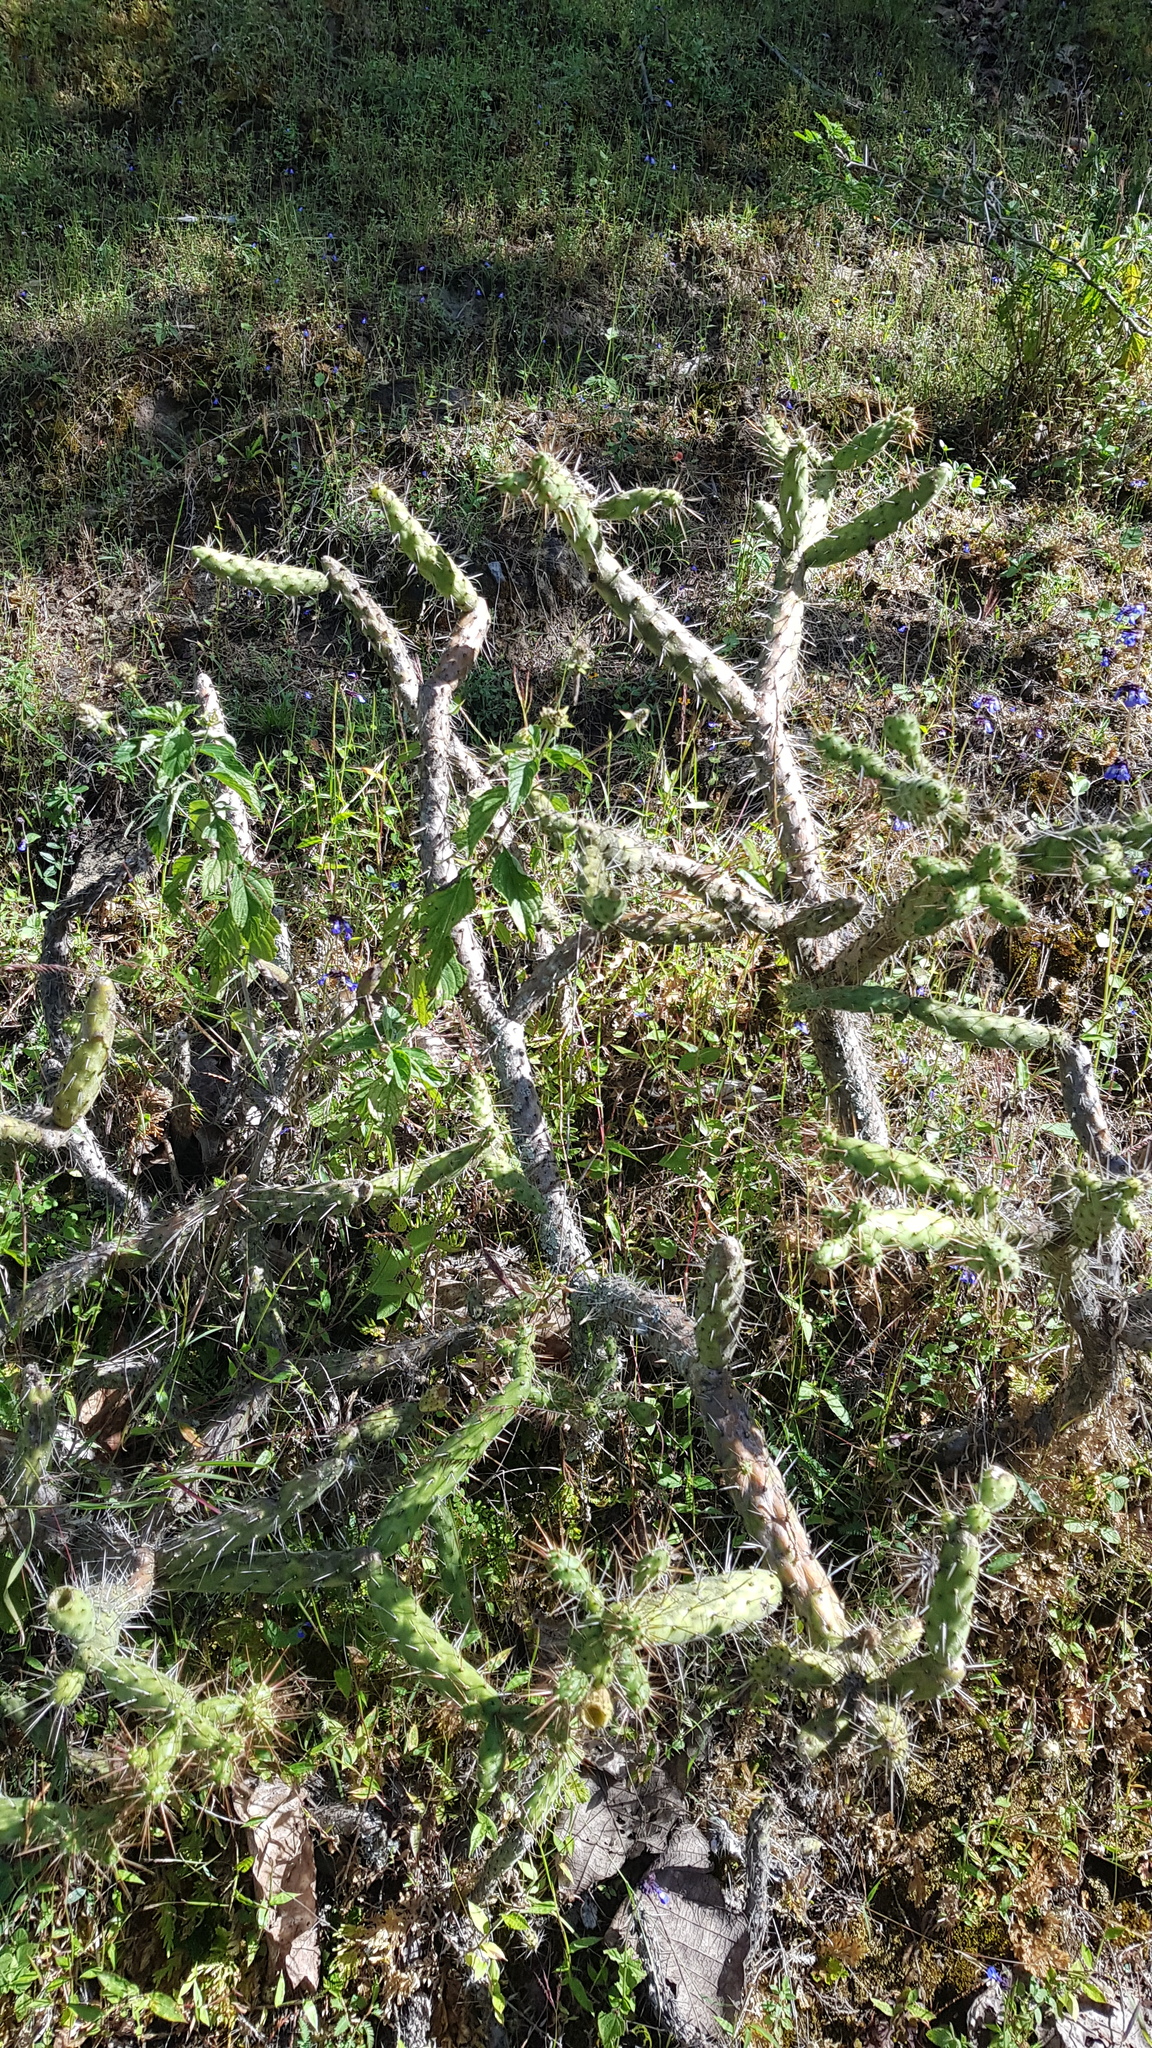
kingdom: Plantae
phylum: Tracheophyta
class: Magnoliopsida
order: Caryophyllales
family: Cactaceae
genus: Opuntia
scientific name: Opuntia
